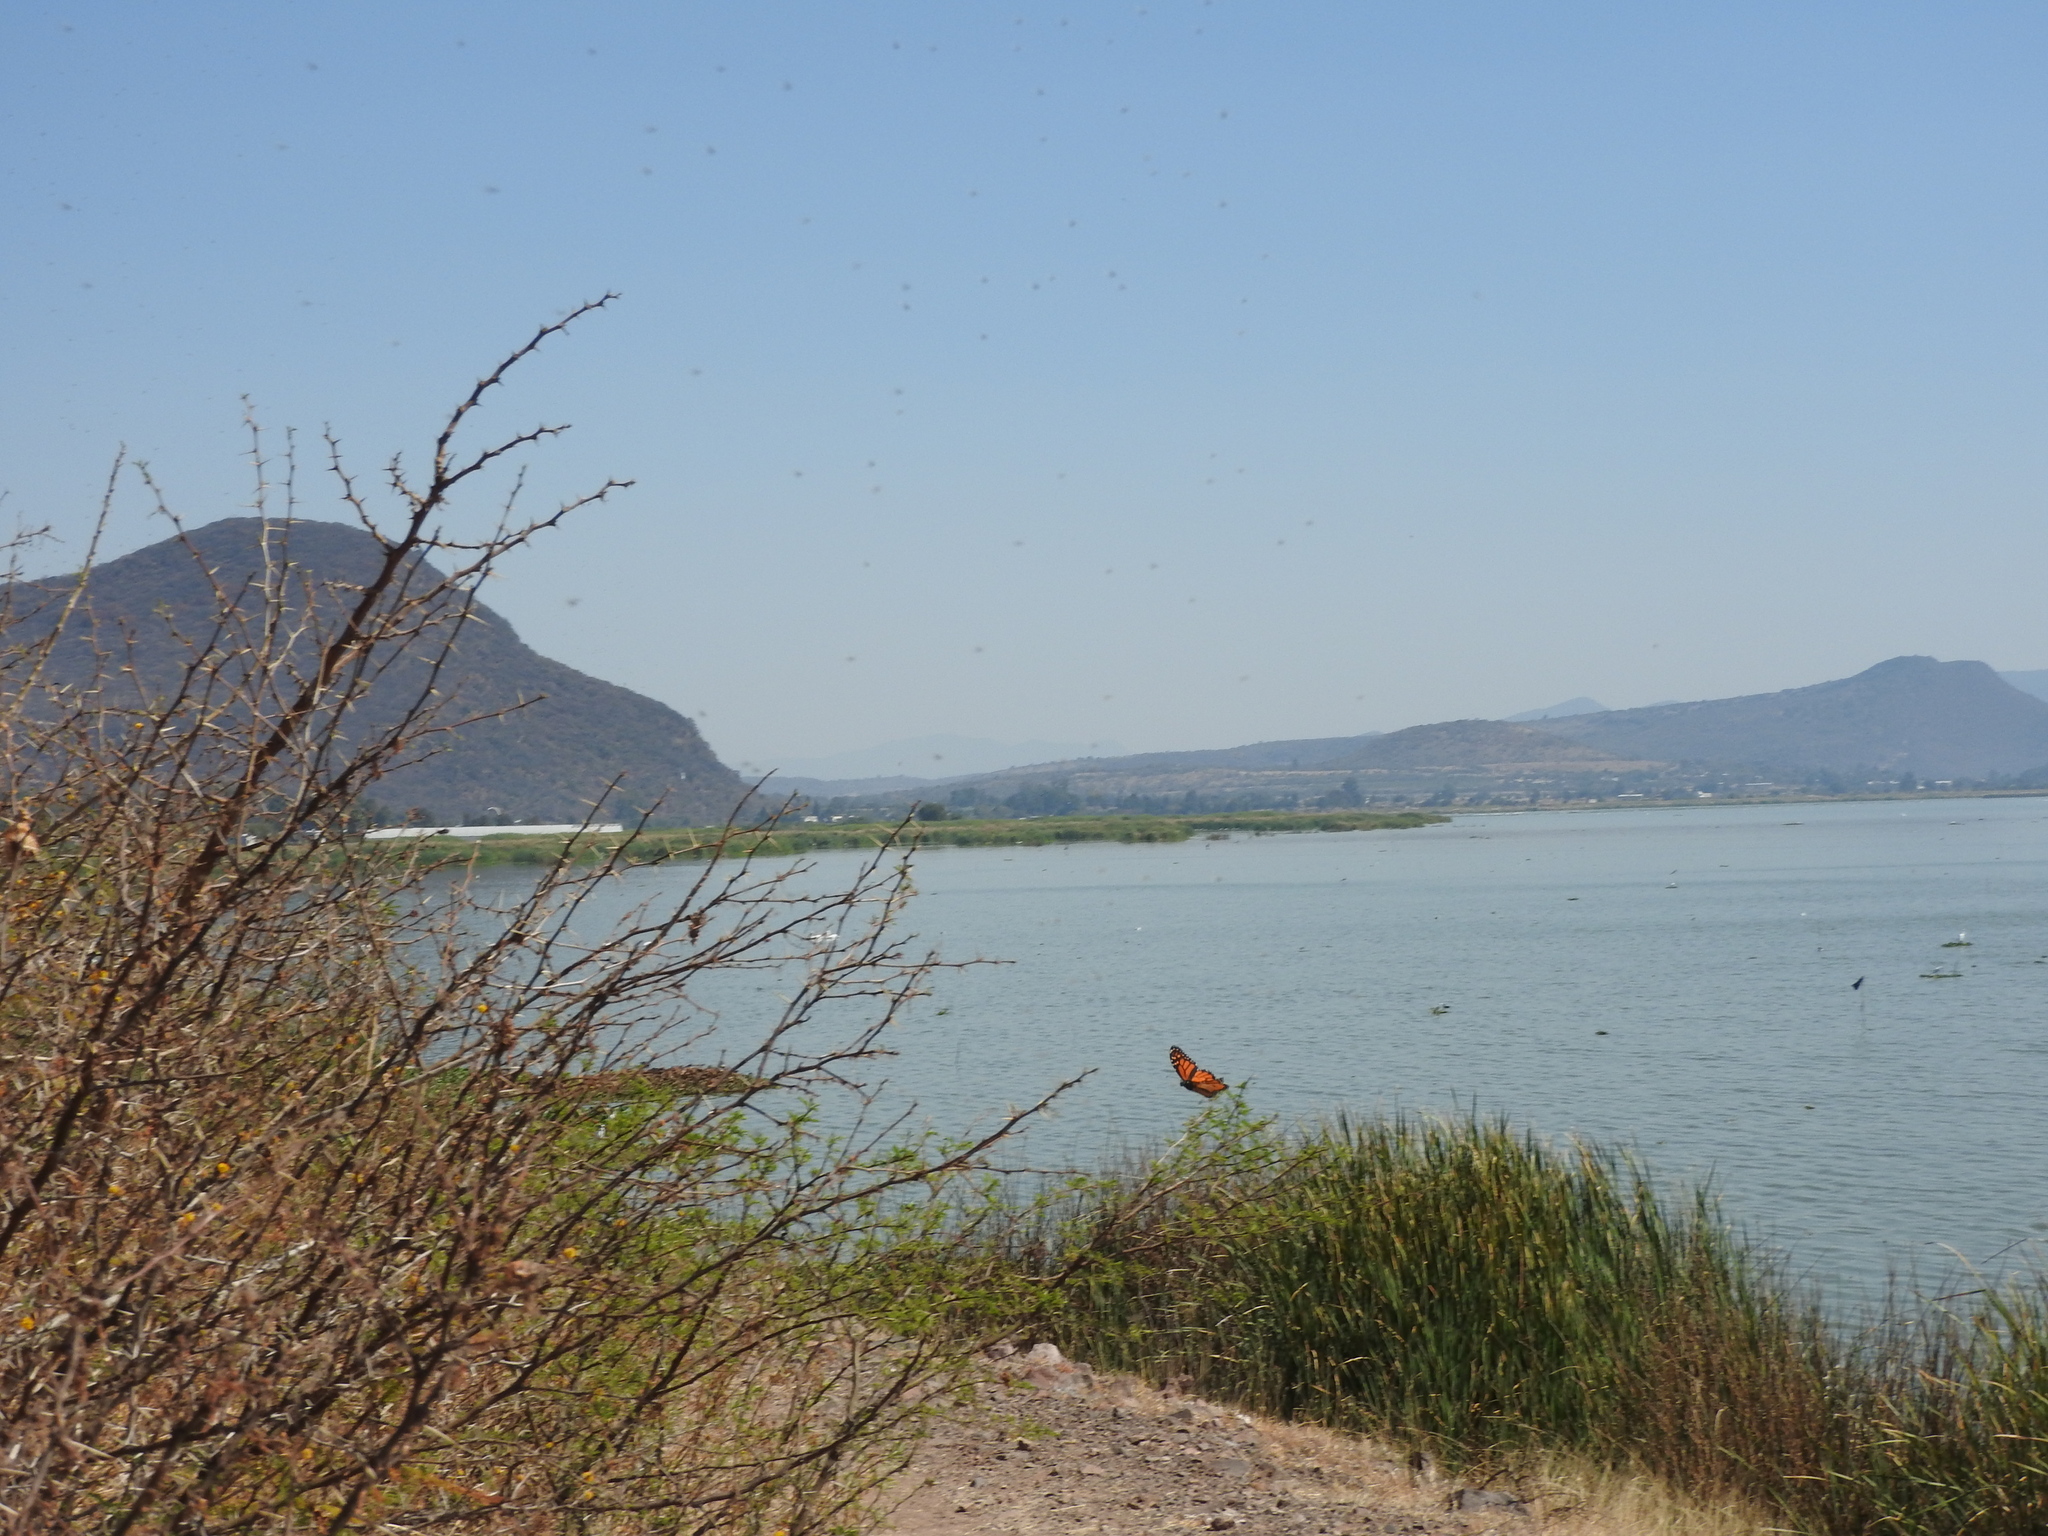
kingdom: Animalia
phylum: Arthropoda
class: Insecta
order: Lepidoptera
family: Nymphalidae
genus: Danaus
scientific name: Danaus plexippus
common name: Monarch
